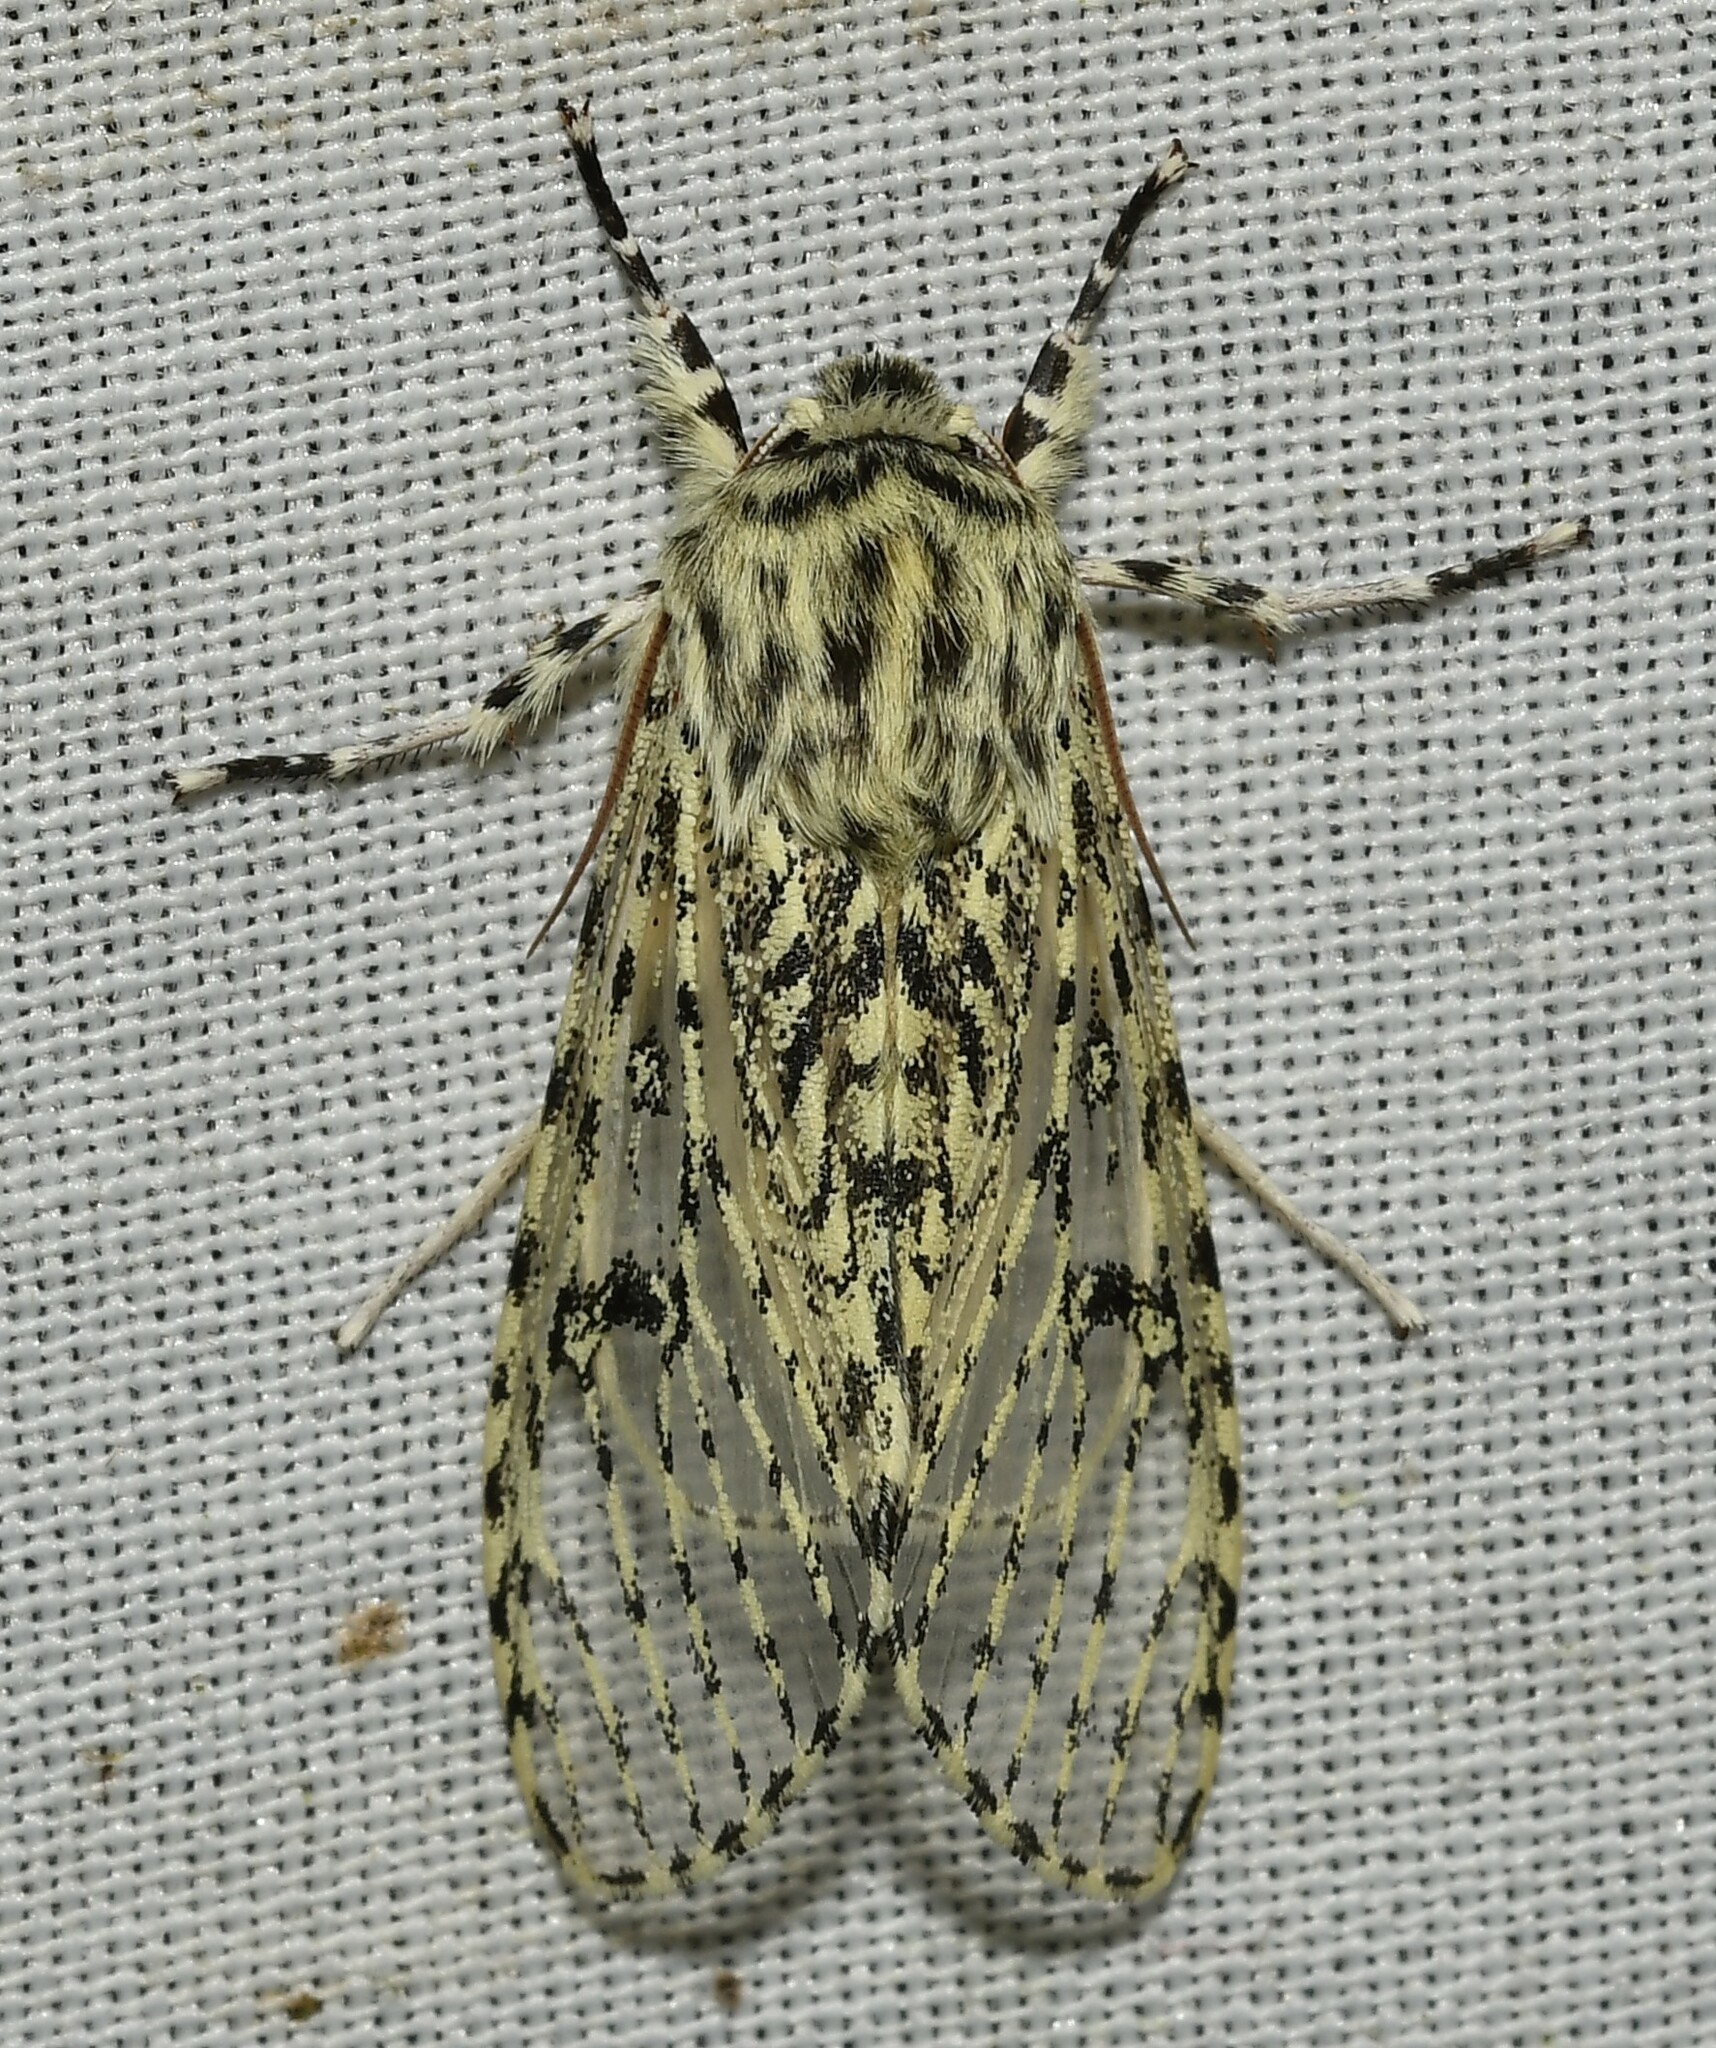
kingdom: Animalia
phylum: Arthropoda
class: Insecta
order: Lepidoptera
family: Noctuidae
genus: Oculicattus
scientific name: Oculicattus raizae
